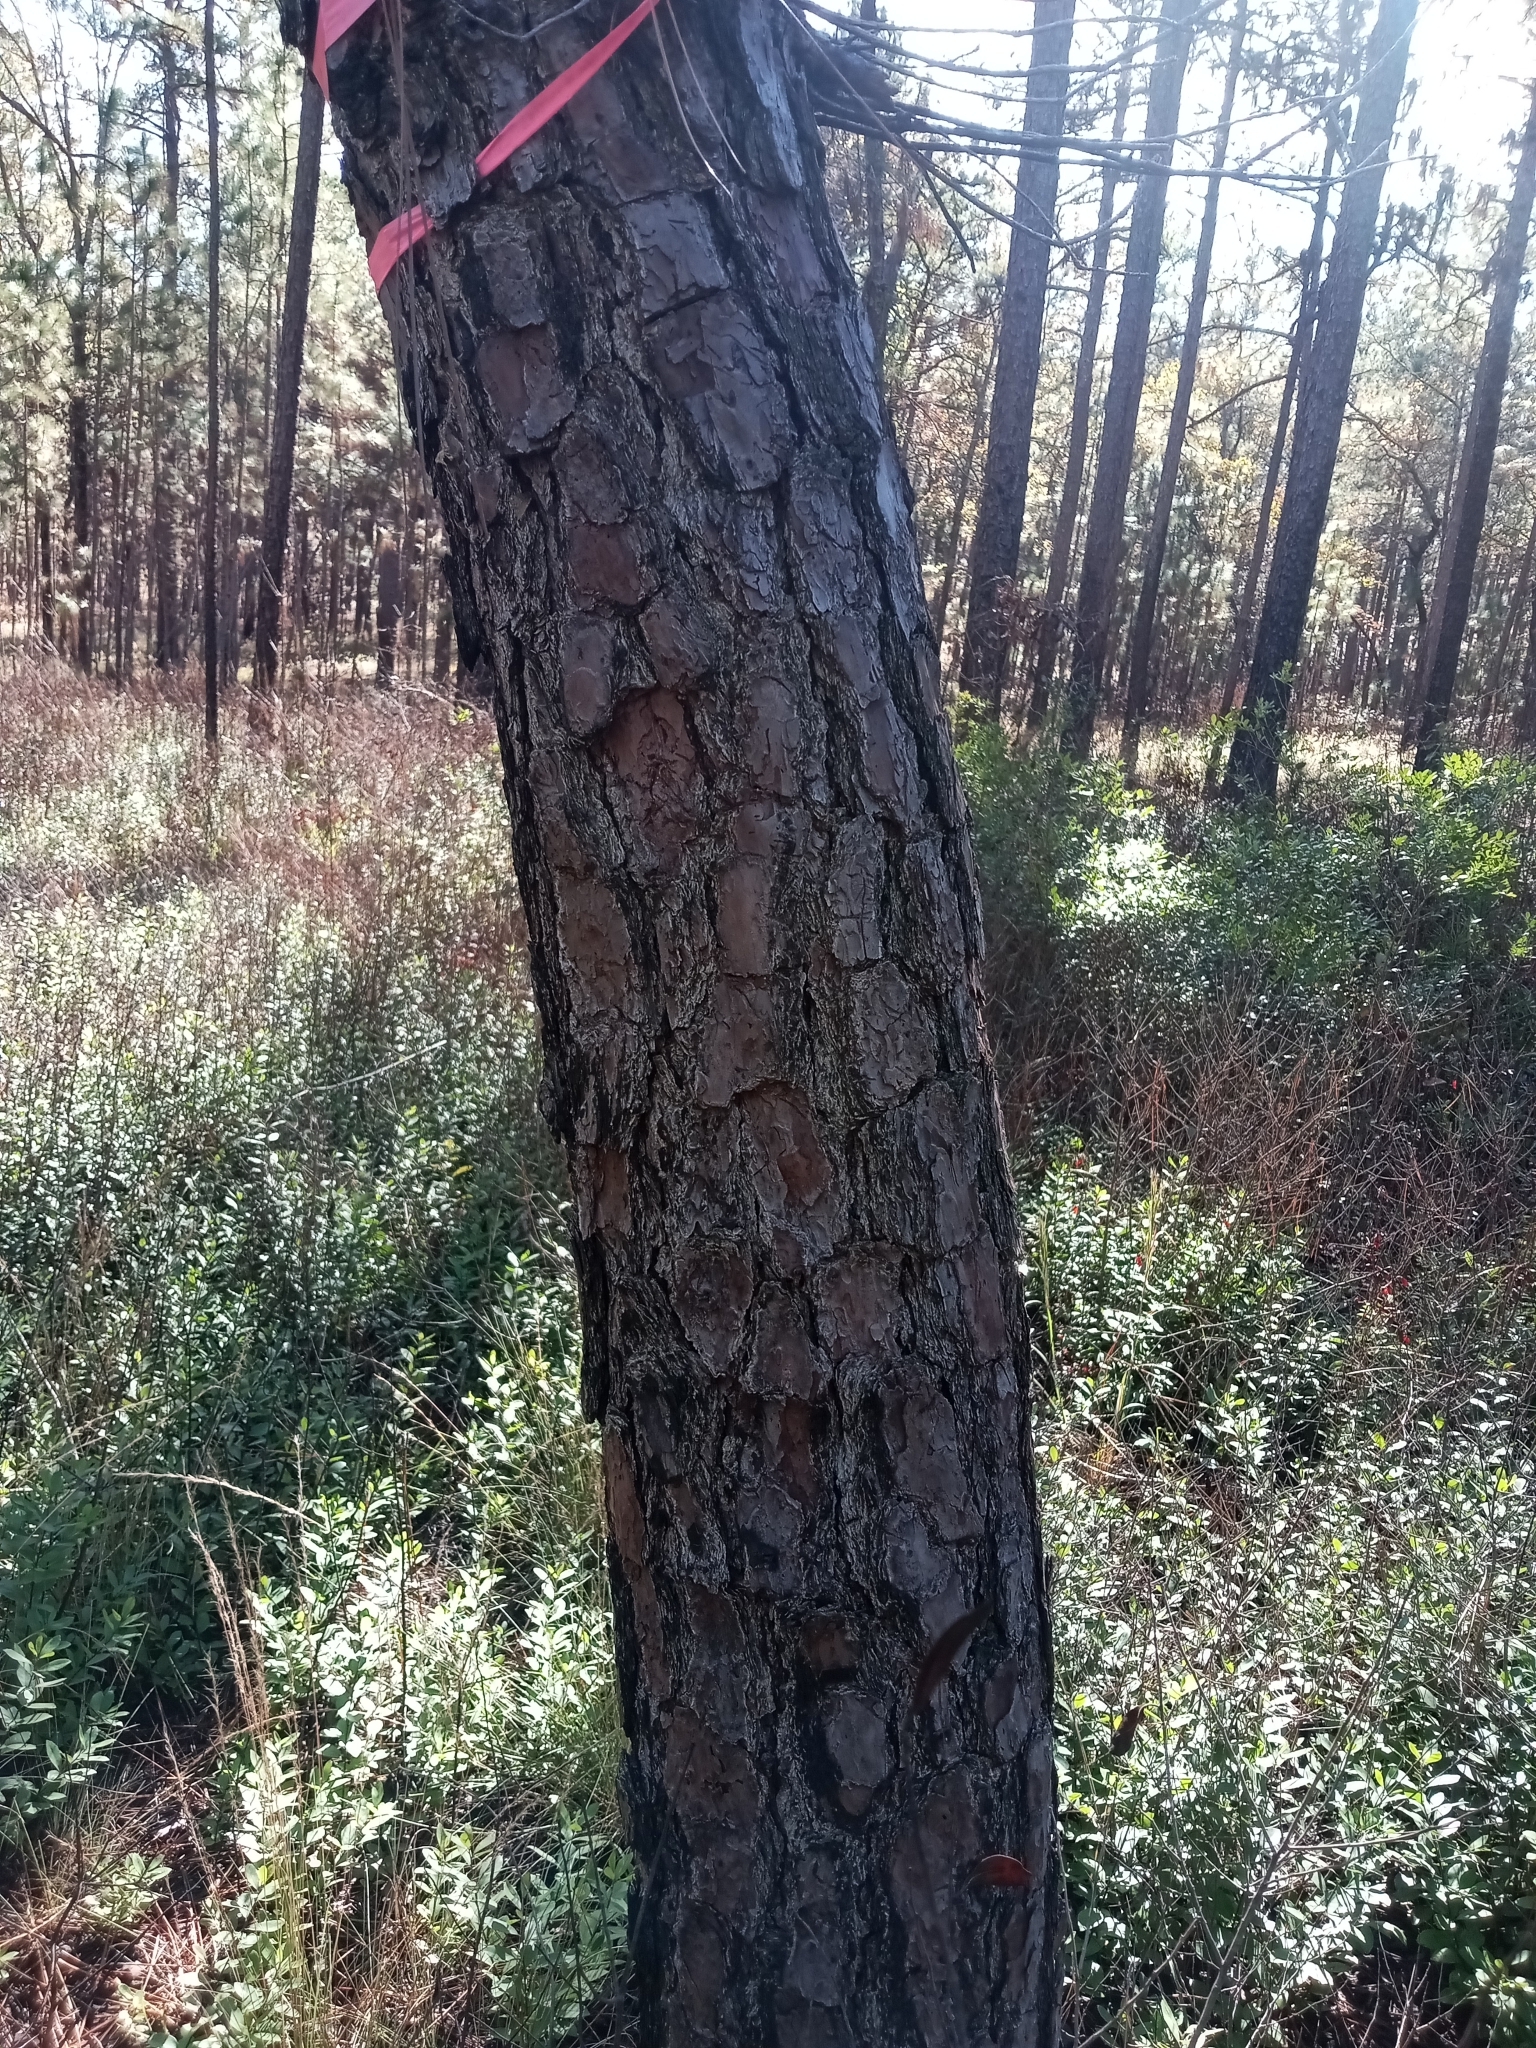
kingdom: Plantae
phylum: Tracheophyta
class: Pinopsida
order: Pinales
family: Pinaceae
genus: Pinus
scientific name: Pinus serotina
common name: Marsh pine
